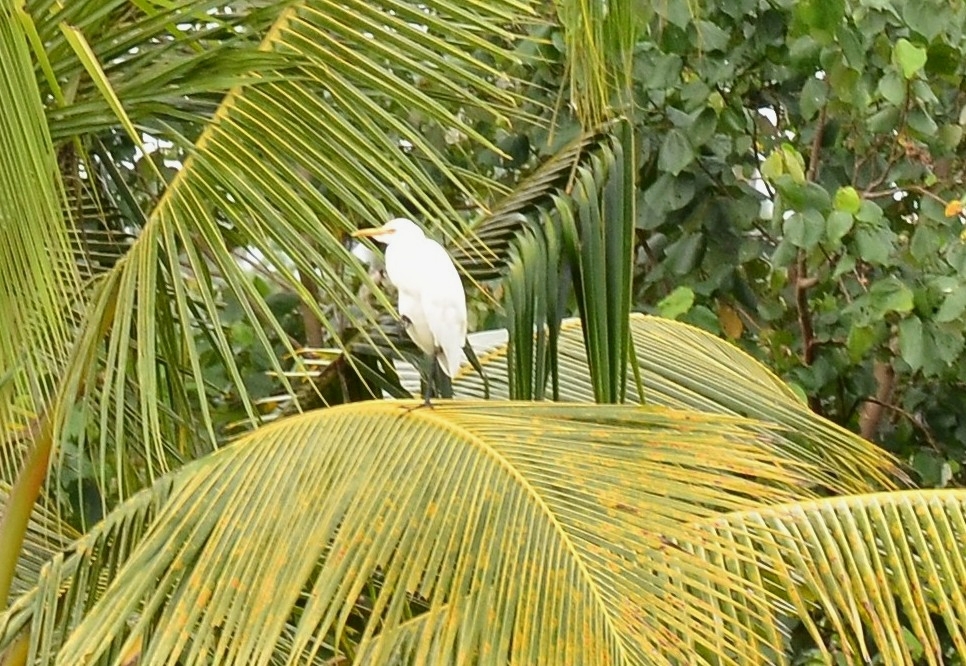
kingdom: Animalia
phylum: Chordata
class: Aves
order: Pelecaniformes
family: Ardeidae
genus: Bubulcus
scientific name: Bubulcus coromandus
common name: Eastern cattle egret
